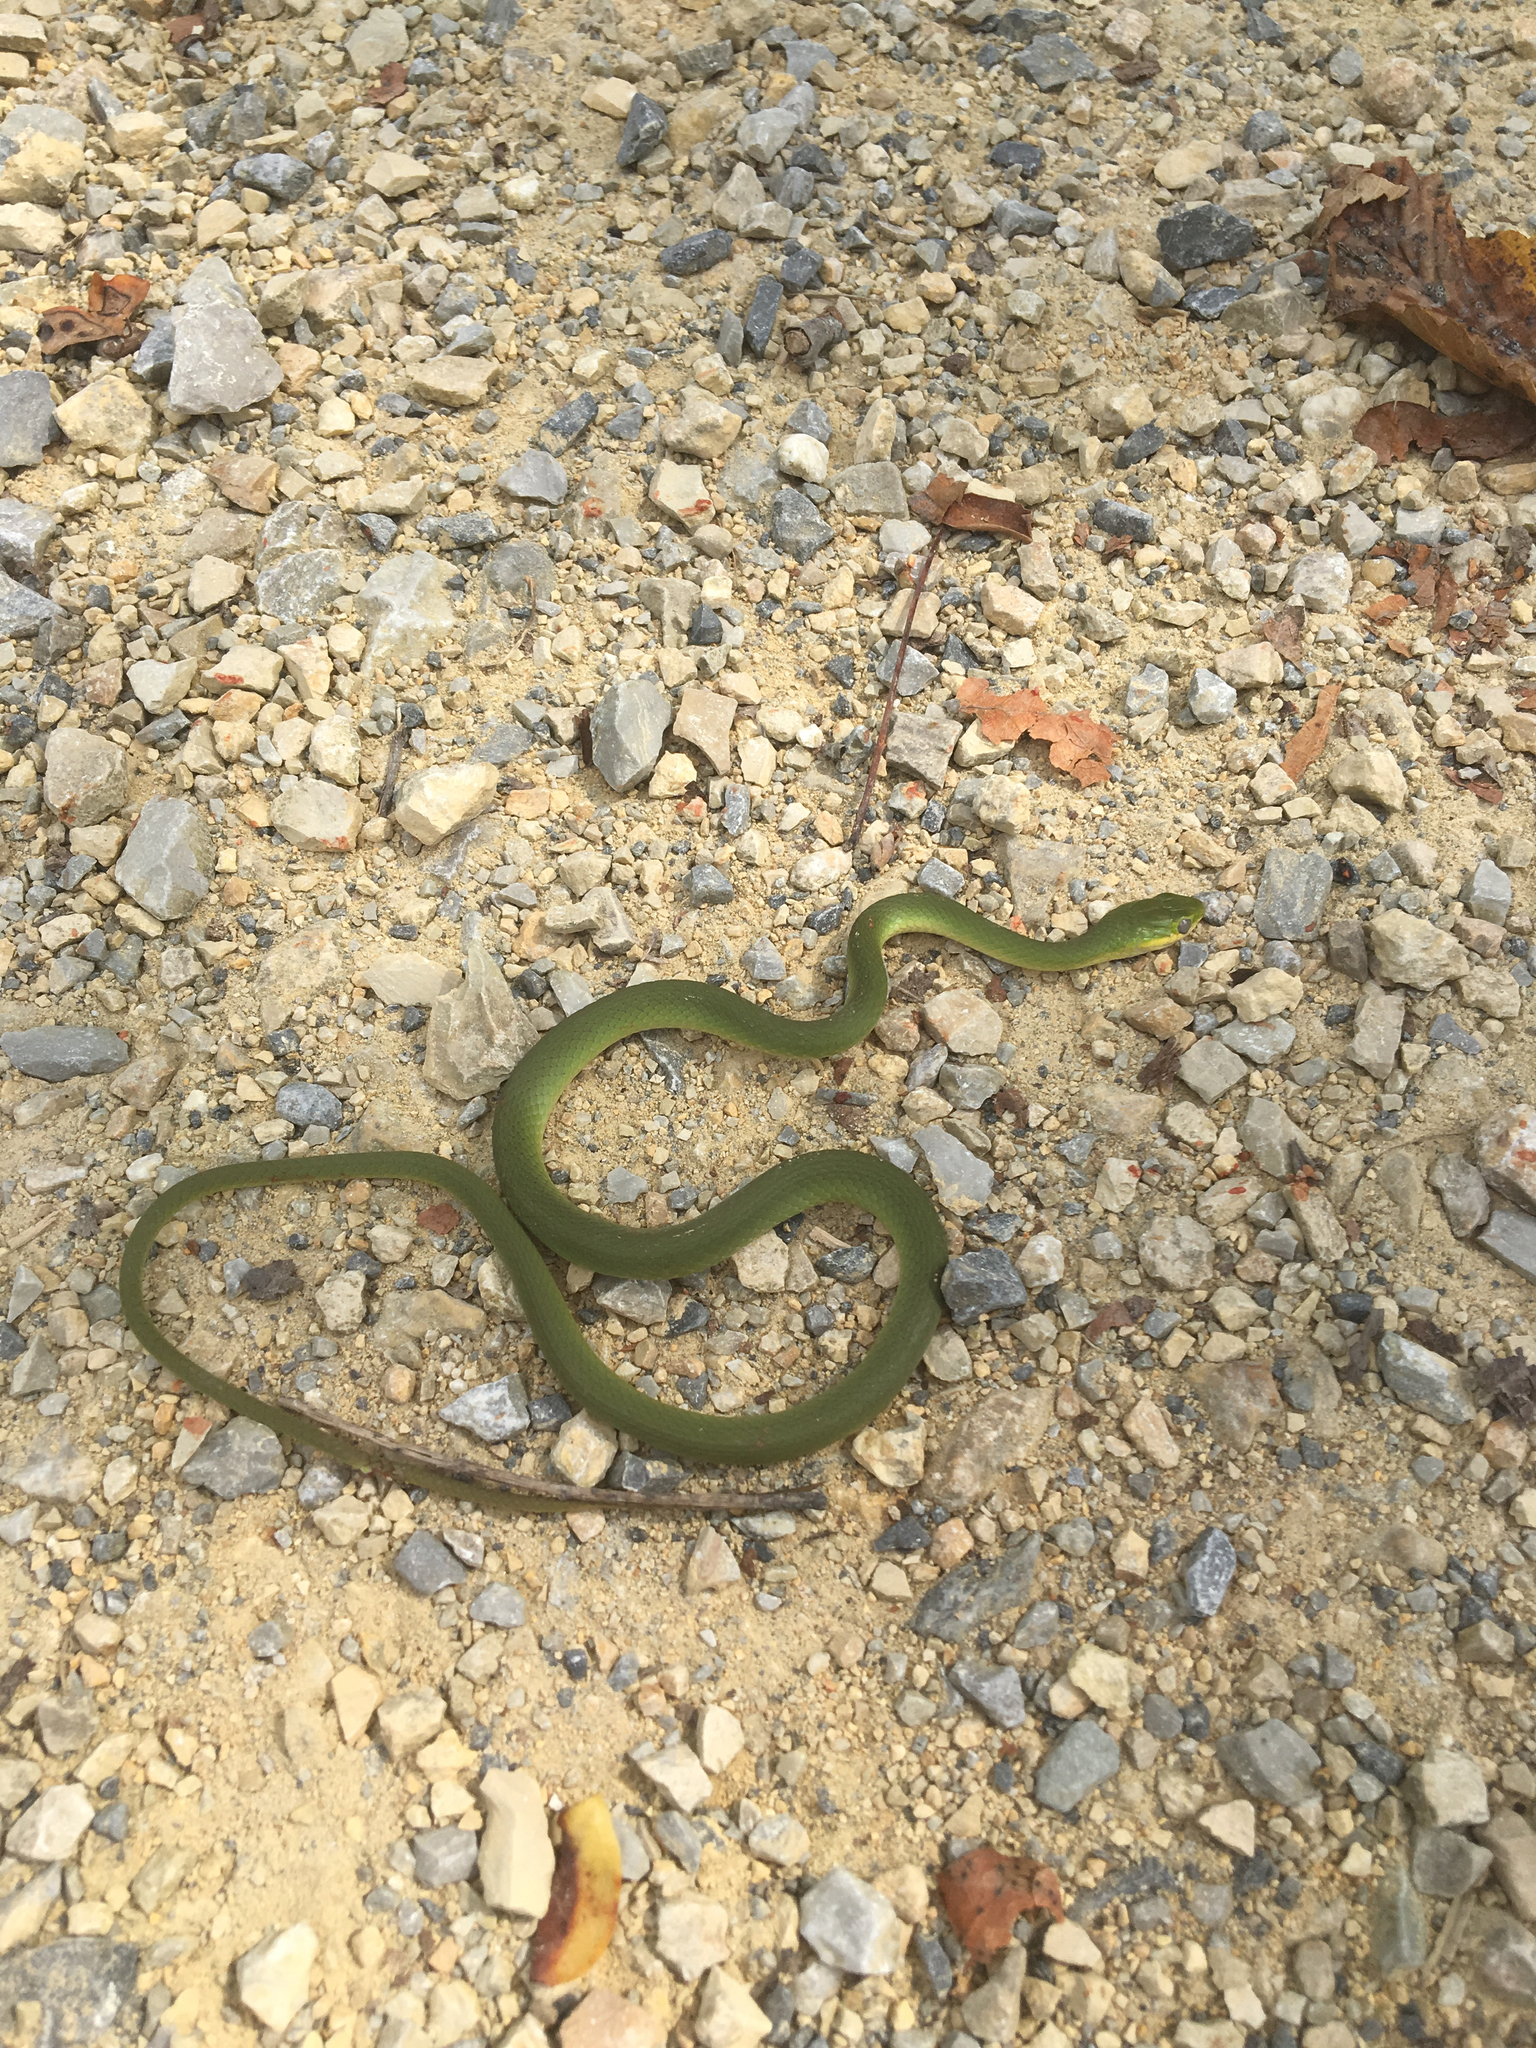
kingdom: Animalia
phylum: Chordata
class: Squamata
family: Colubridae
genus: Opheodrys
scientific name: Opheodrys aestivus
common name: Rough greensnake
